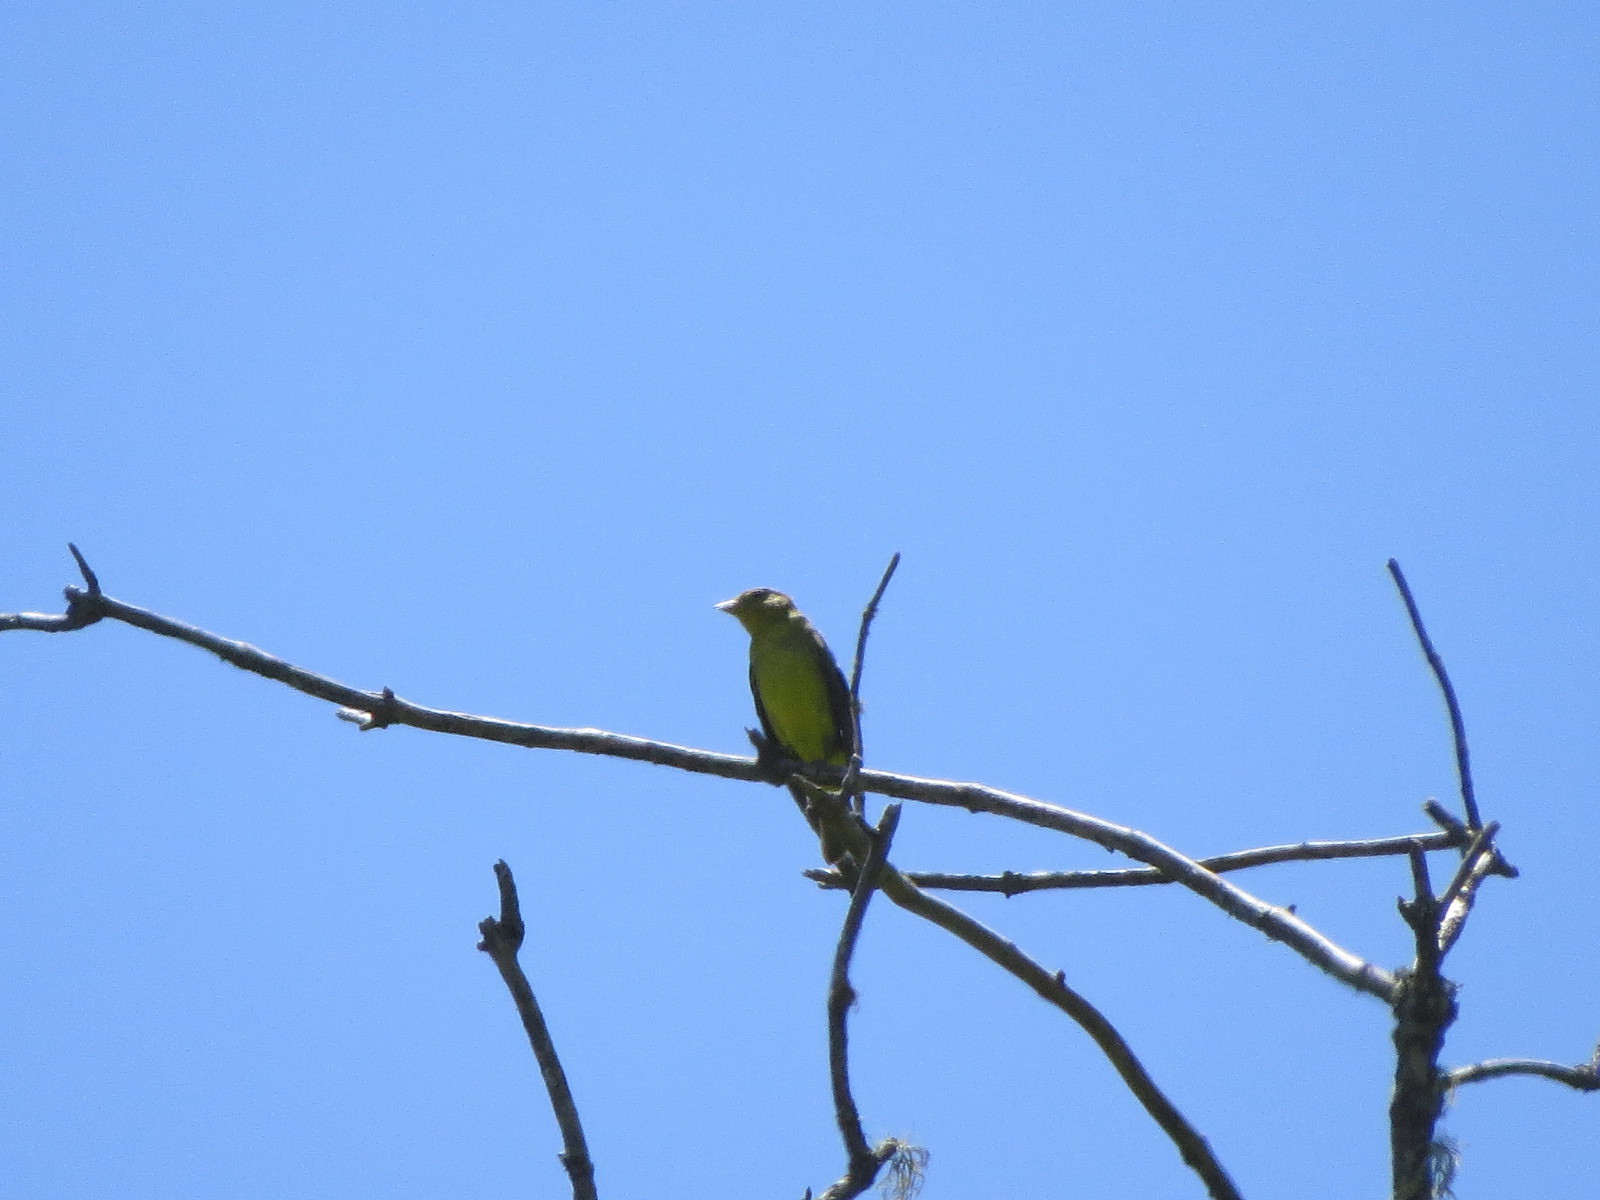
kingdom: Animalia
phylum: Chordata
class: Aves
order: Passeriformes
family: Cardinalidae
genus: Piranga
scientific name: Piranga ludoviciana
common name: Western tanager
